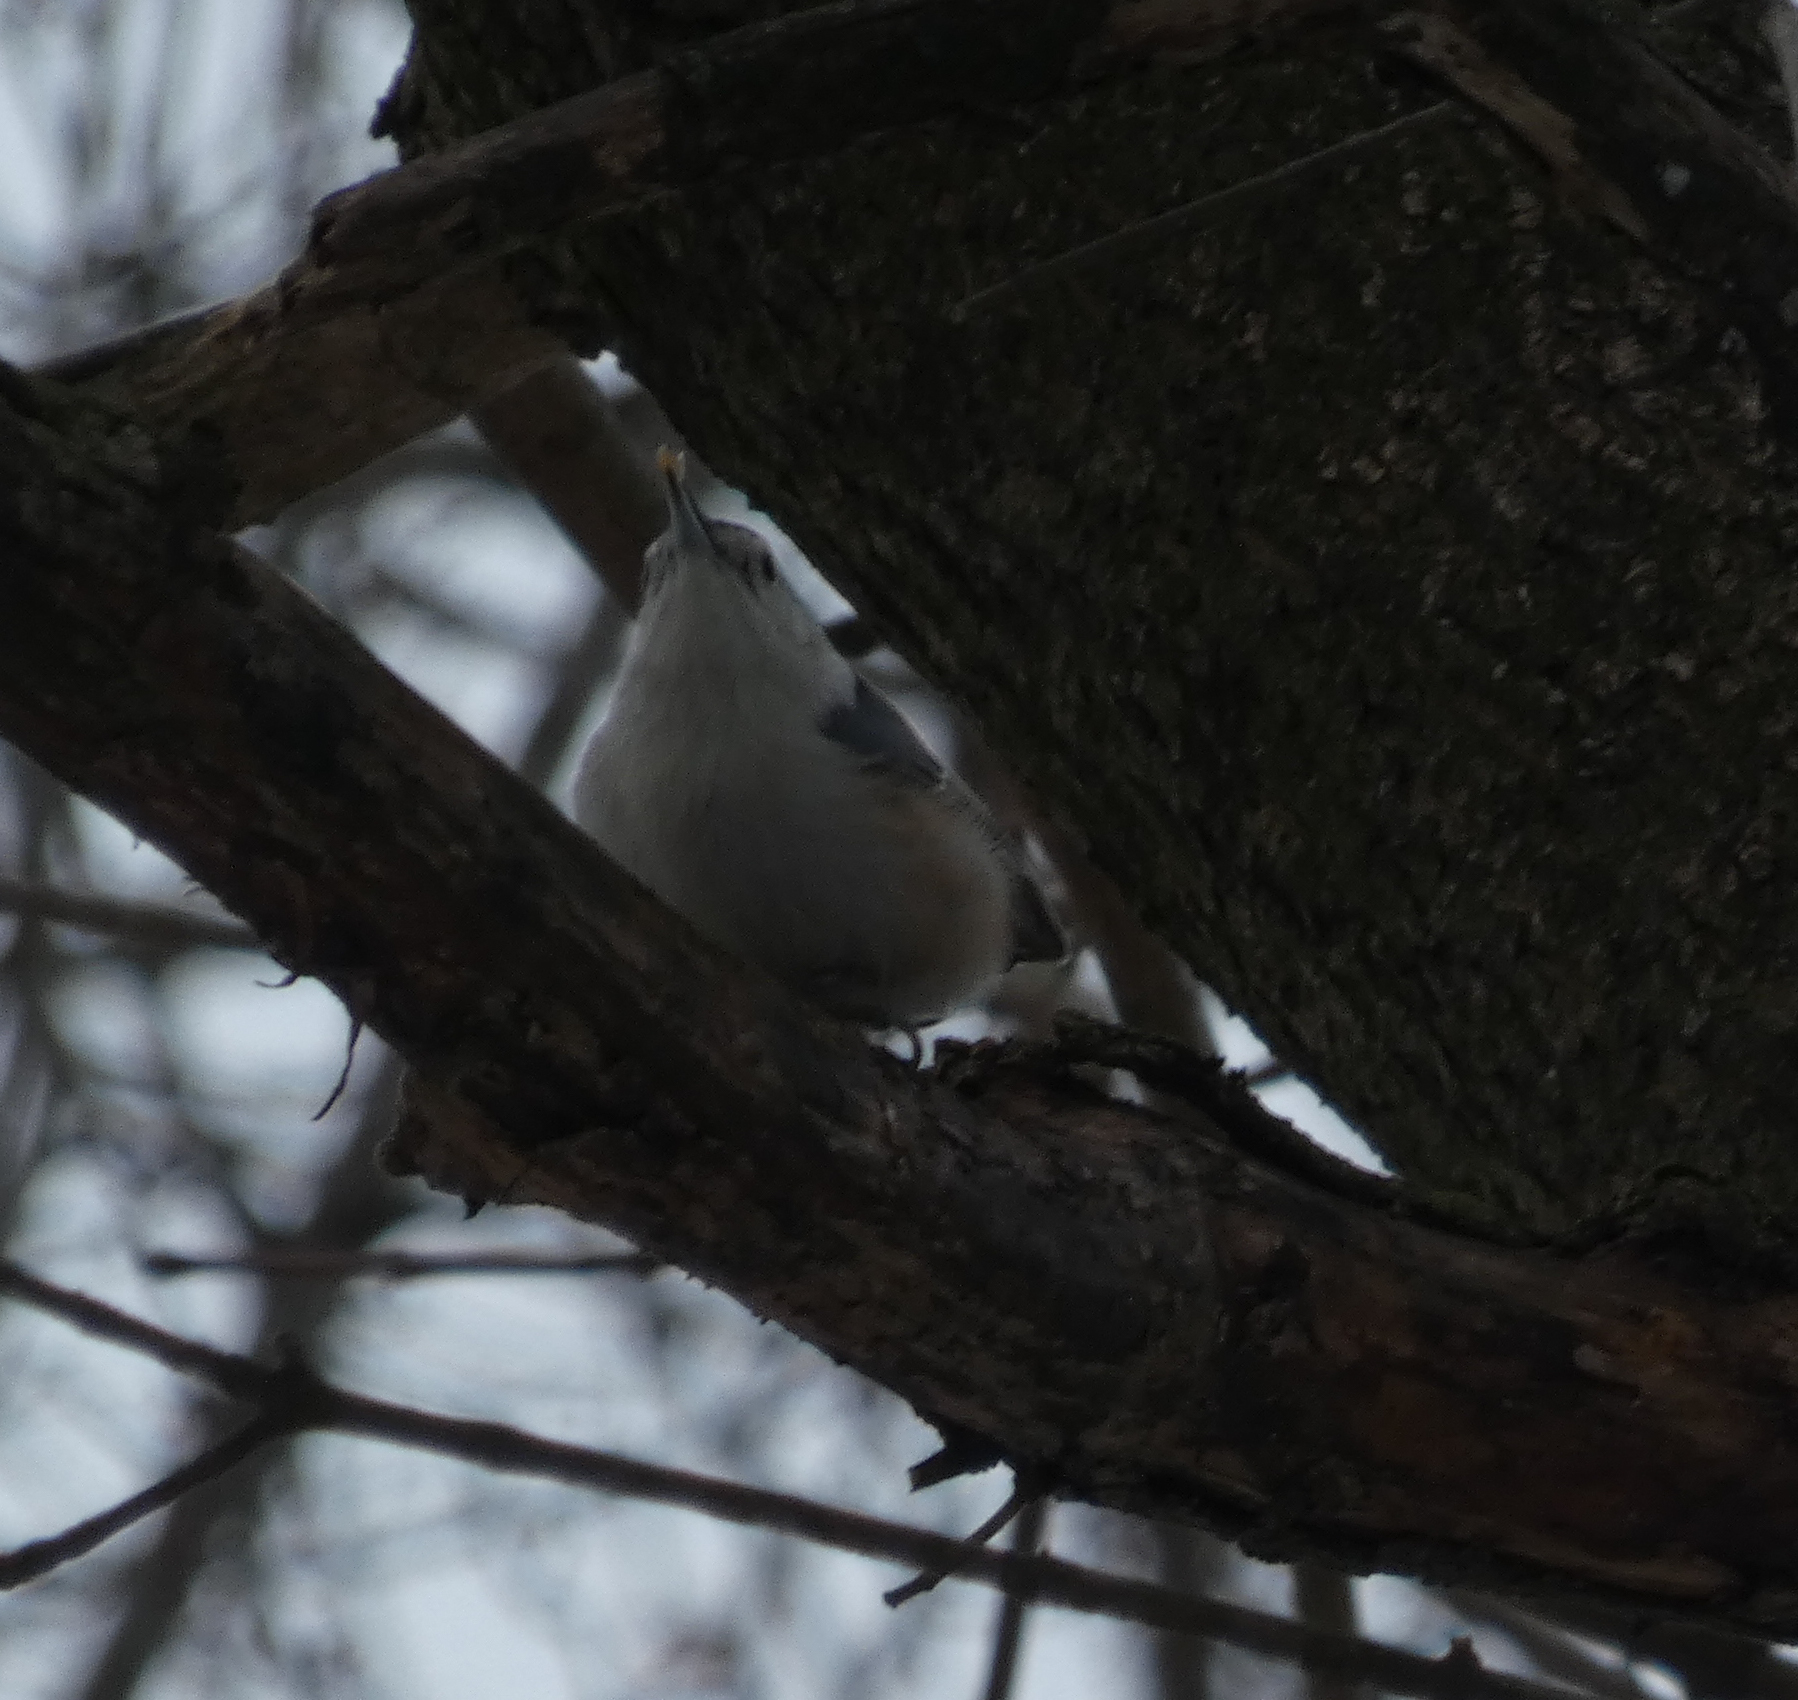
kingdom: Animalia
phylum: Chordata
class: Aves
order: Passeriformes
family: Sittidae
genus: Sitta
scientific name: Sitta carolinensis
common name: White-breasted nuthatch
